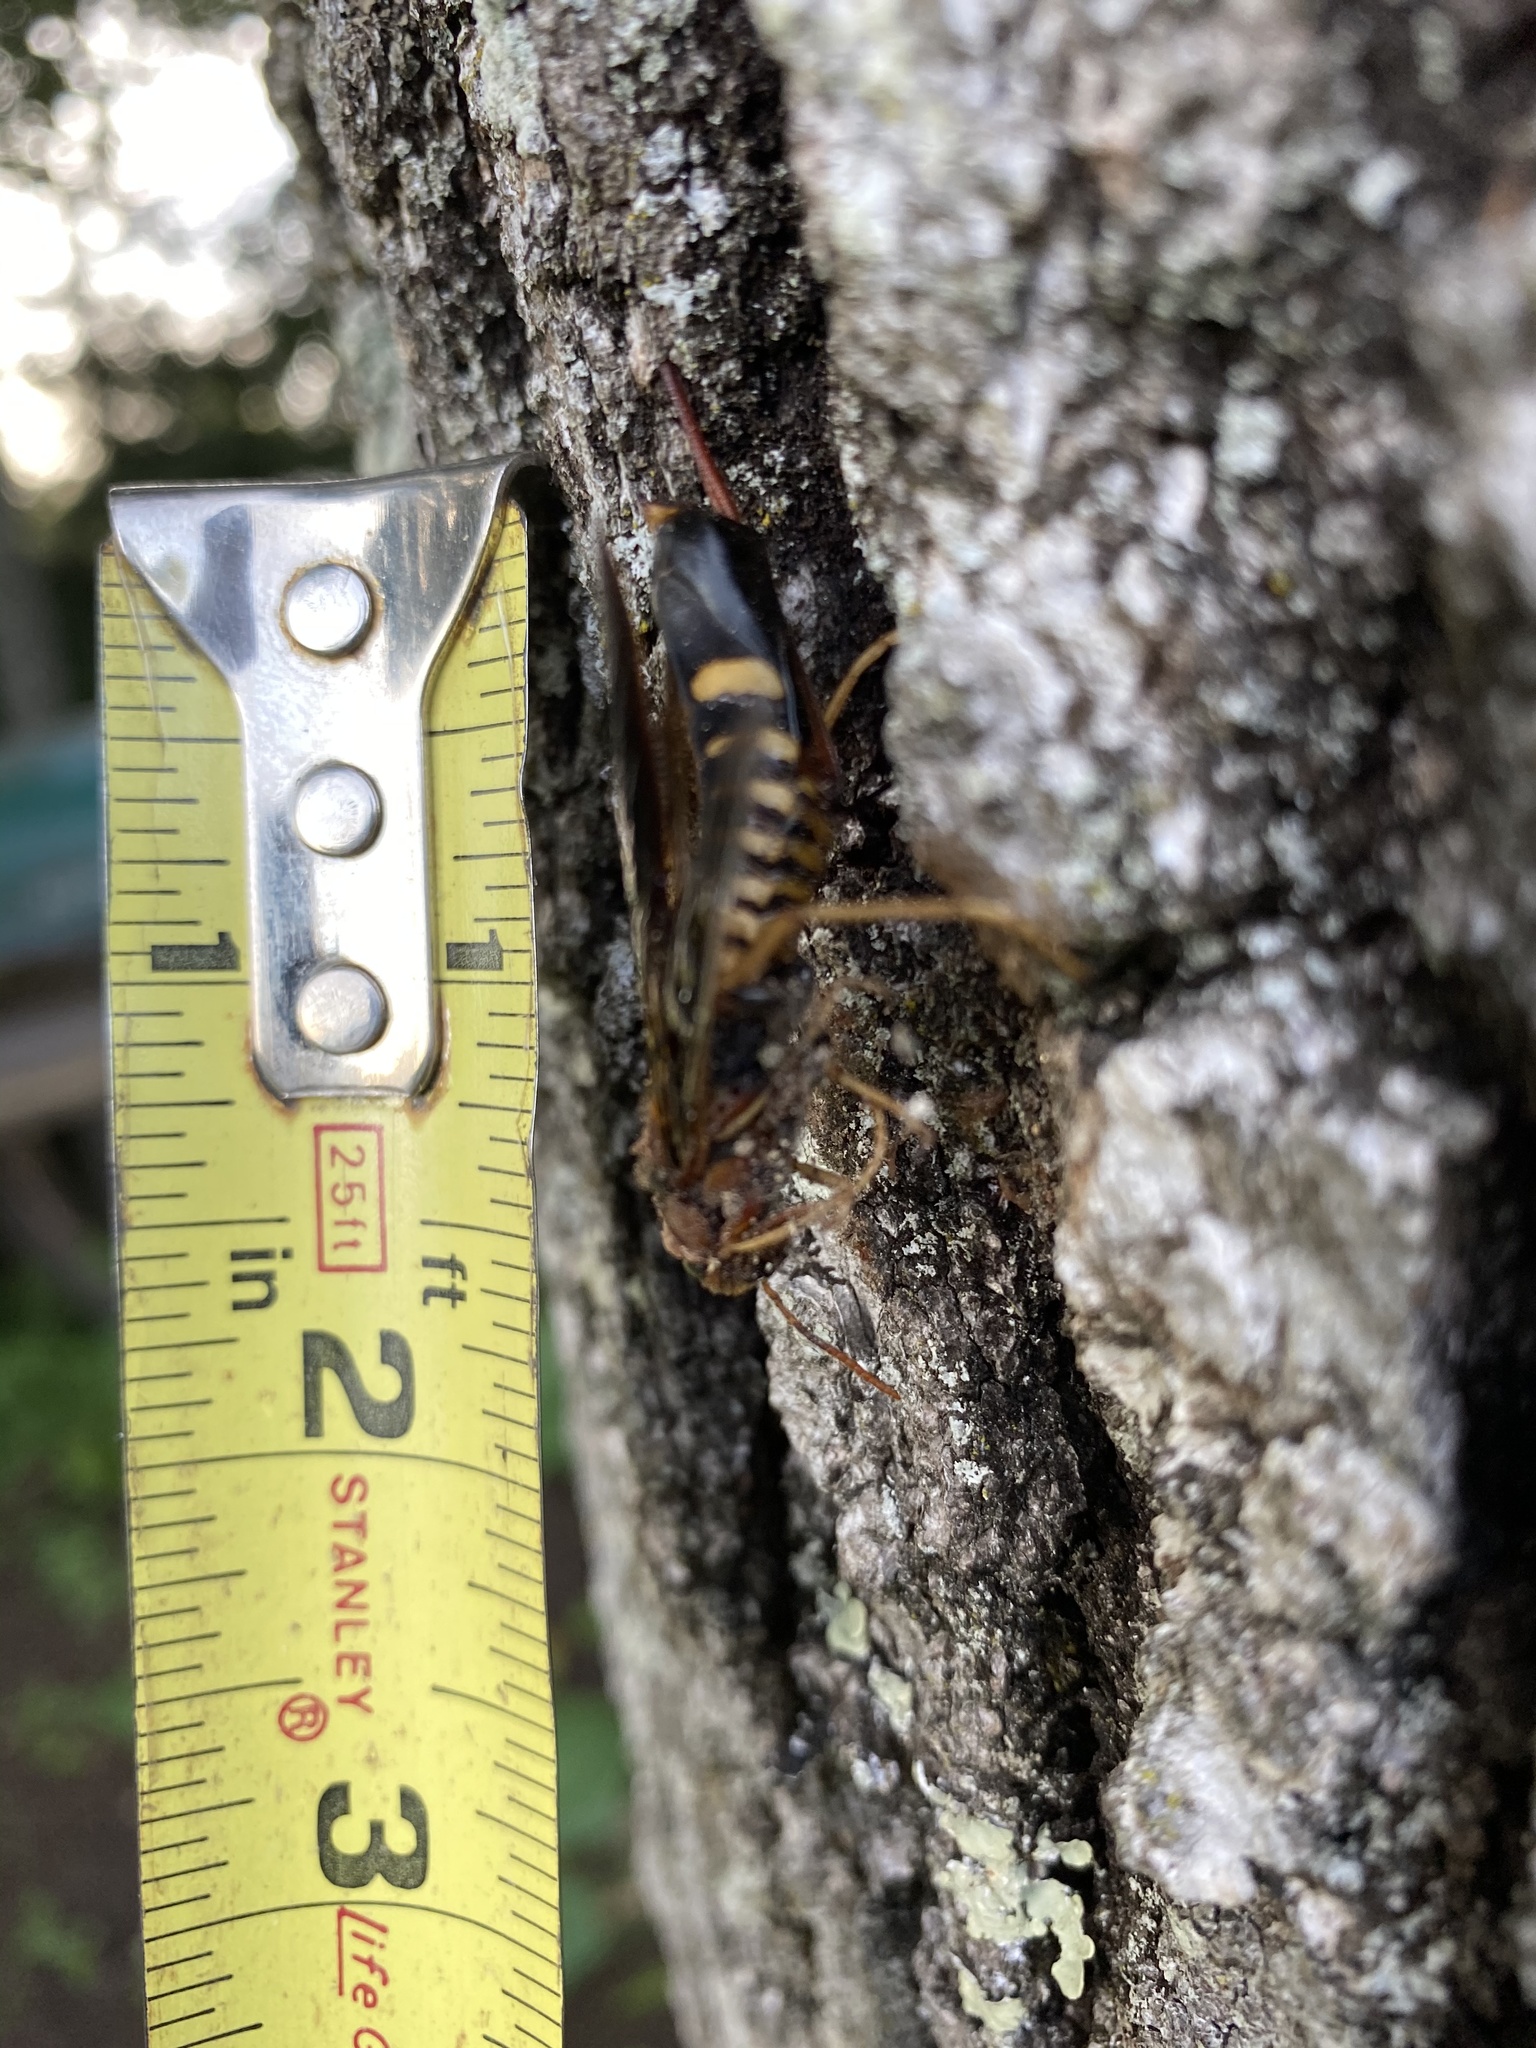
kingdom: Animalia
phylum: Arthropoda
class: Insecta
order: Hymenoptera
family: Siricidae
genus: Tremex
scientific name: Tremex columba
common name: Wasp
